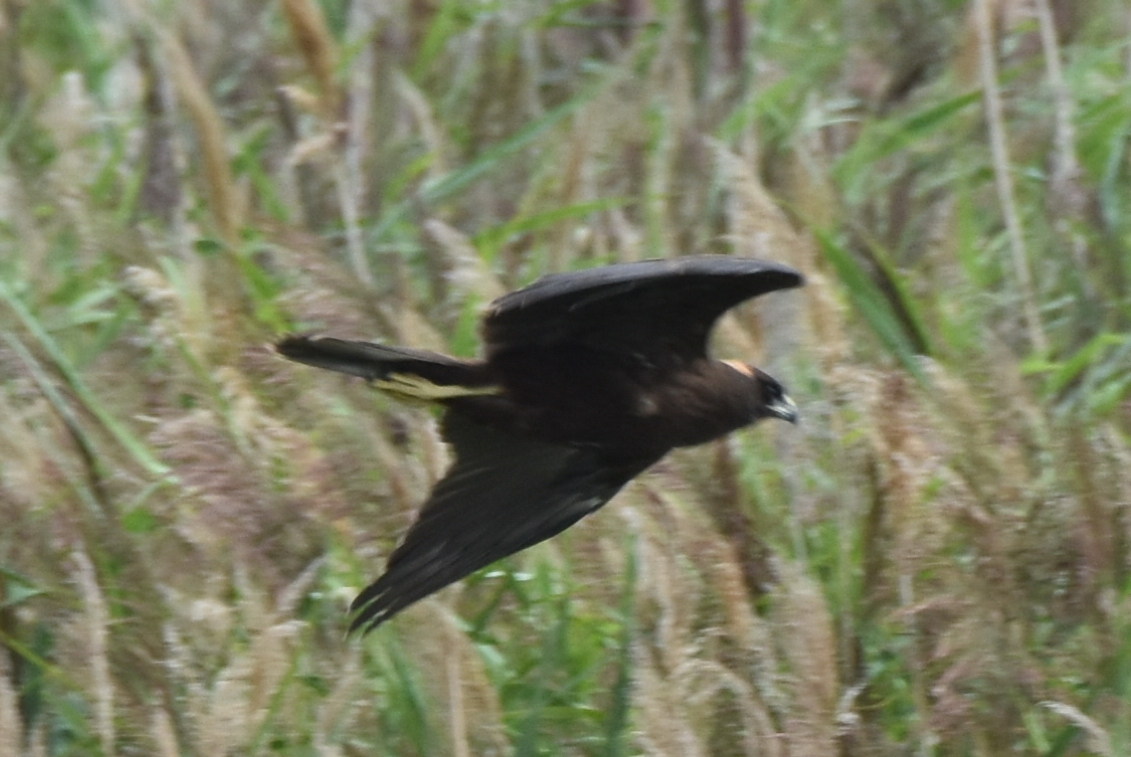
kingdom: Animalia
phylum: Chordata
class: Aves
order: Accipitriformes
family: Accipitridae
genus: Circus
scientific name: Circus aeruginosus
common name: Western marsh harrier
